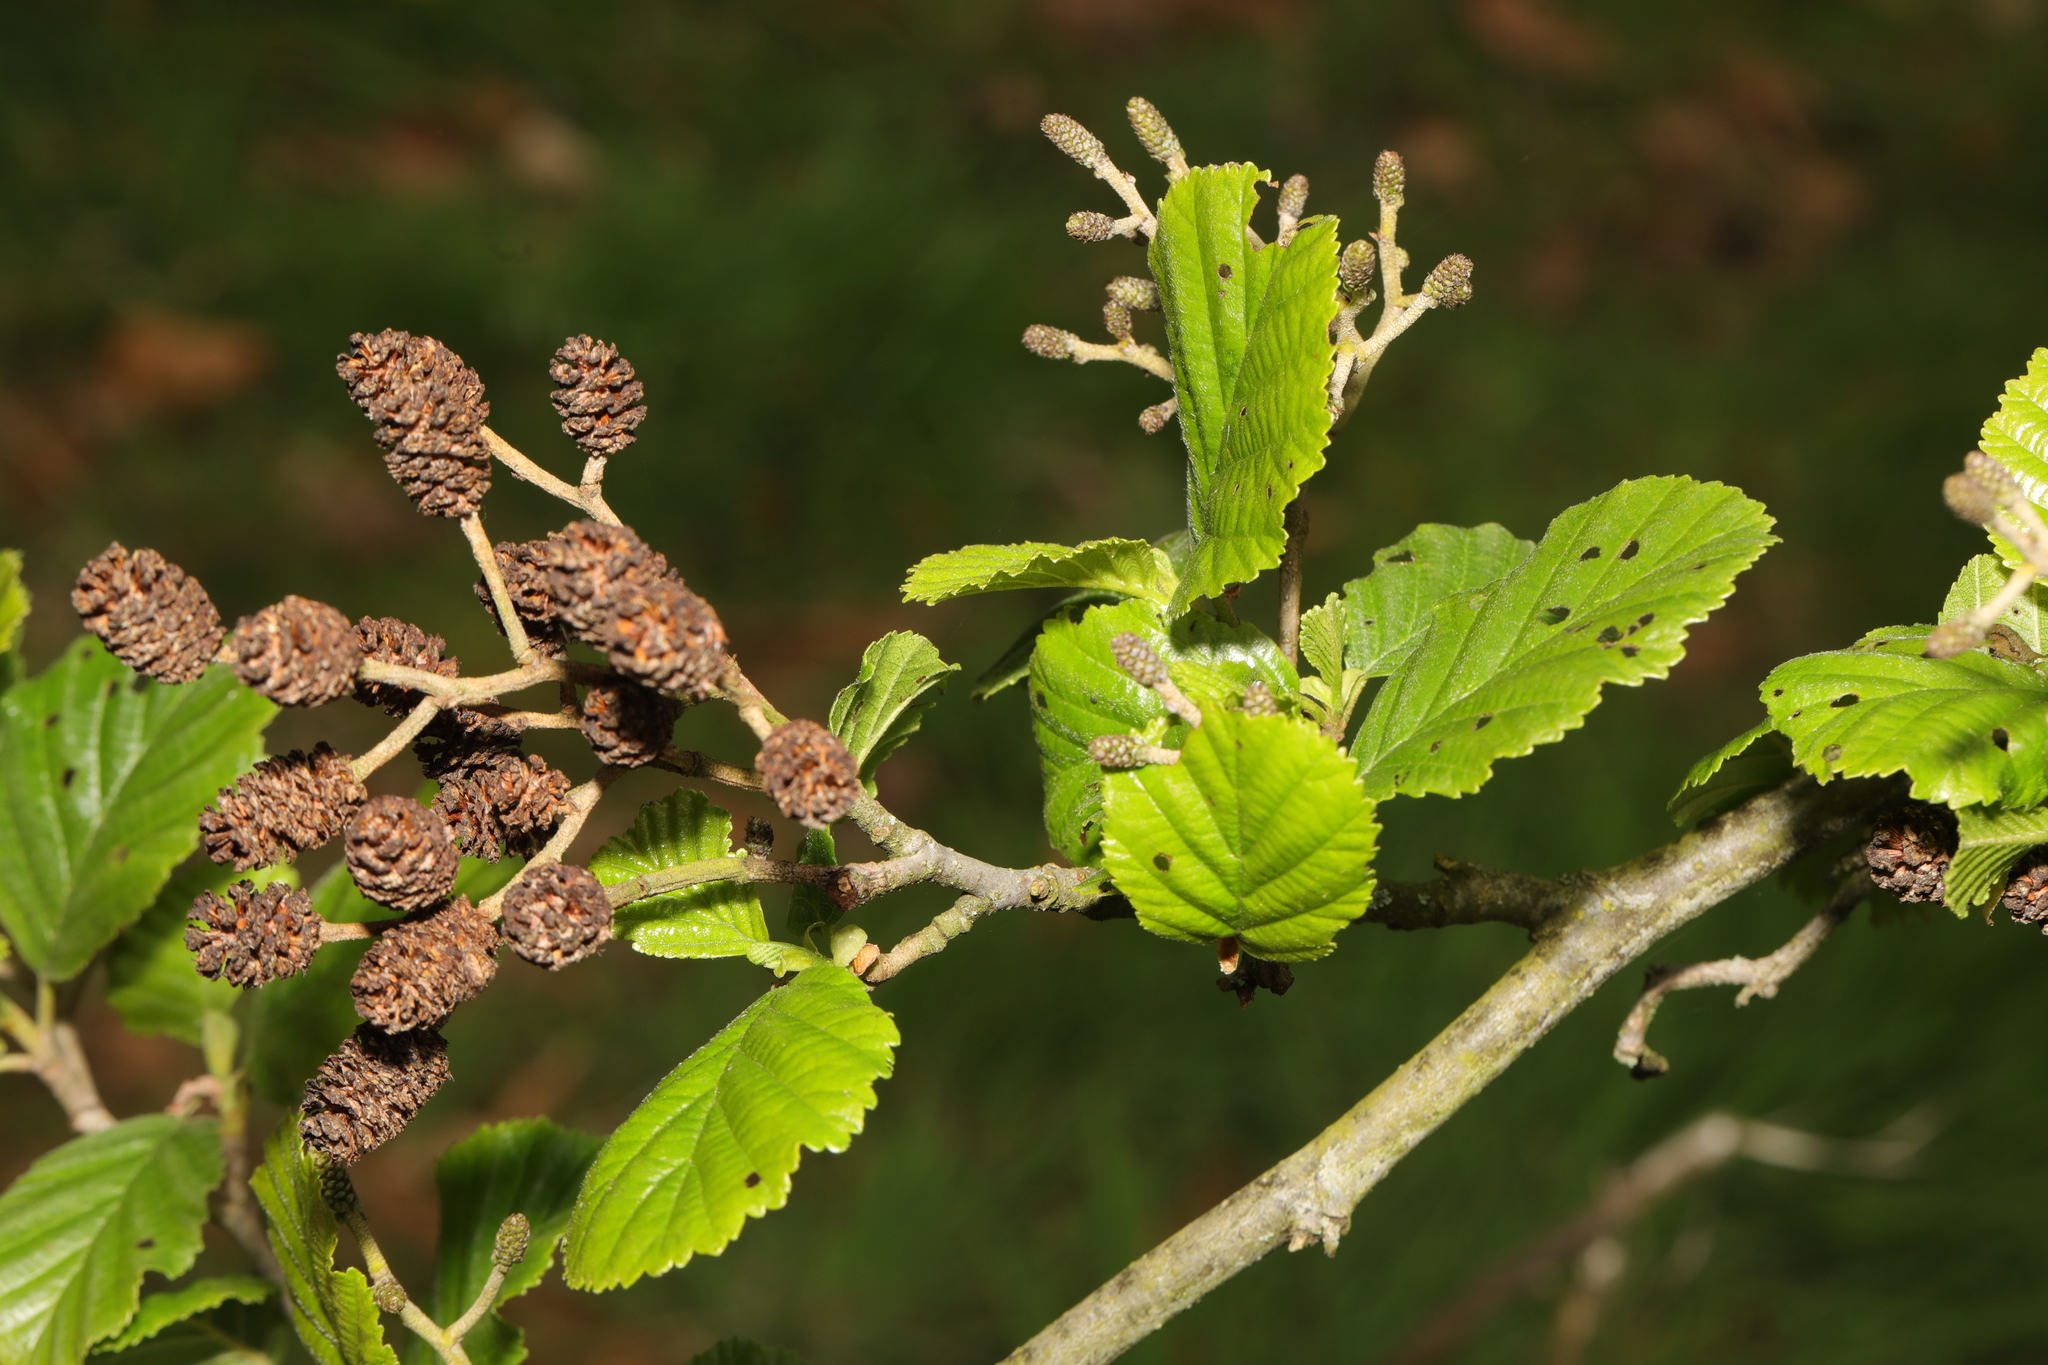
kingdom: Plantae
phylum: Tracheophyta
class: Magnoliopsida
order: Fagales
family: Betulaceae
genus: Alnus
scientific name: Alnus glutinosa
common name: Black alder
